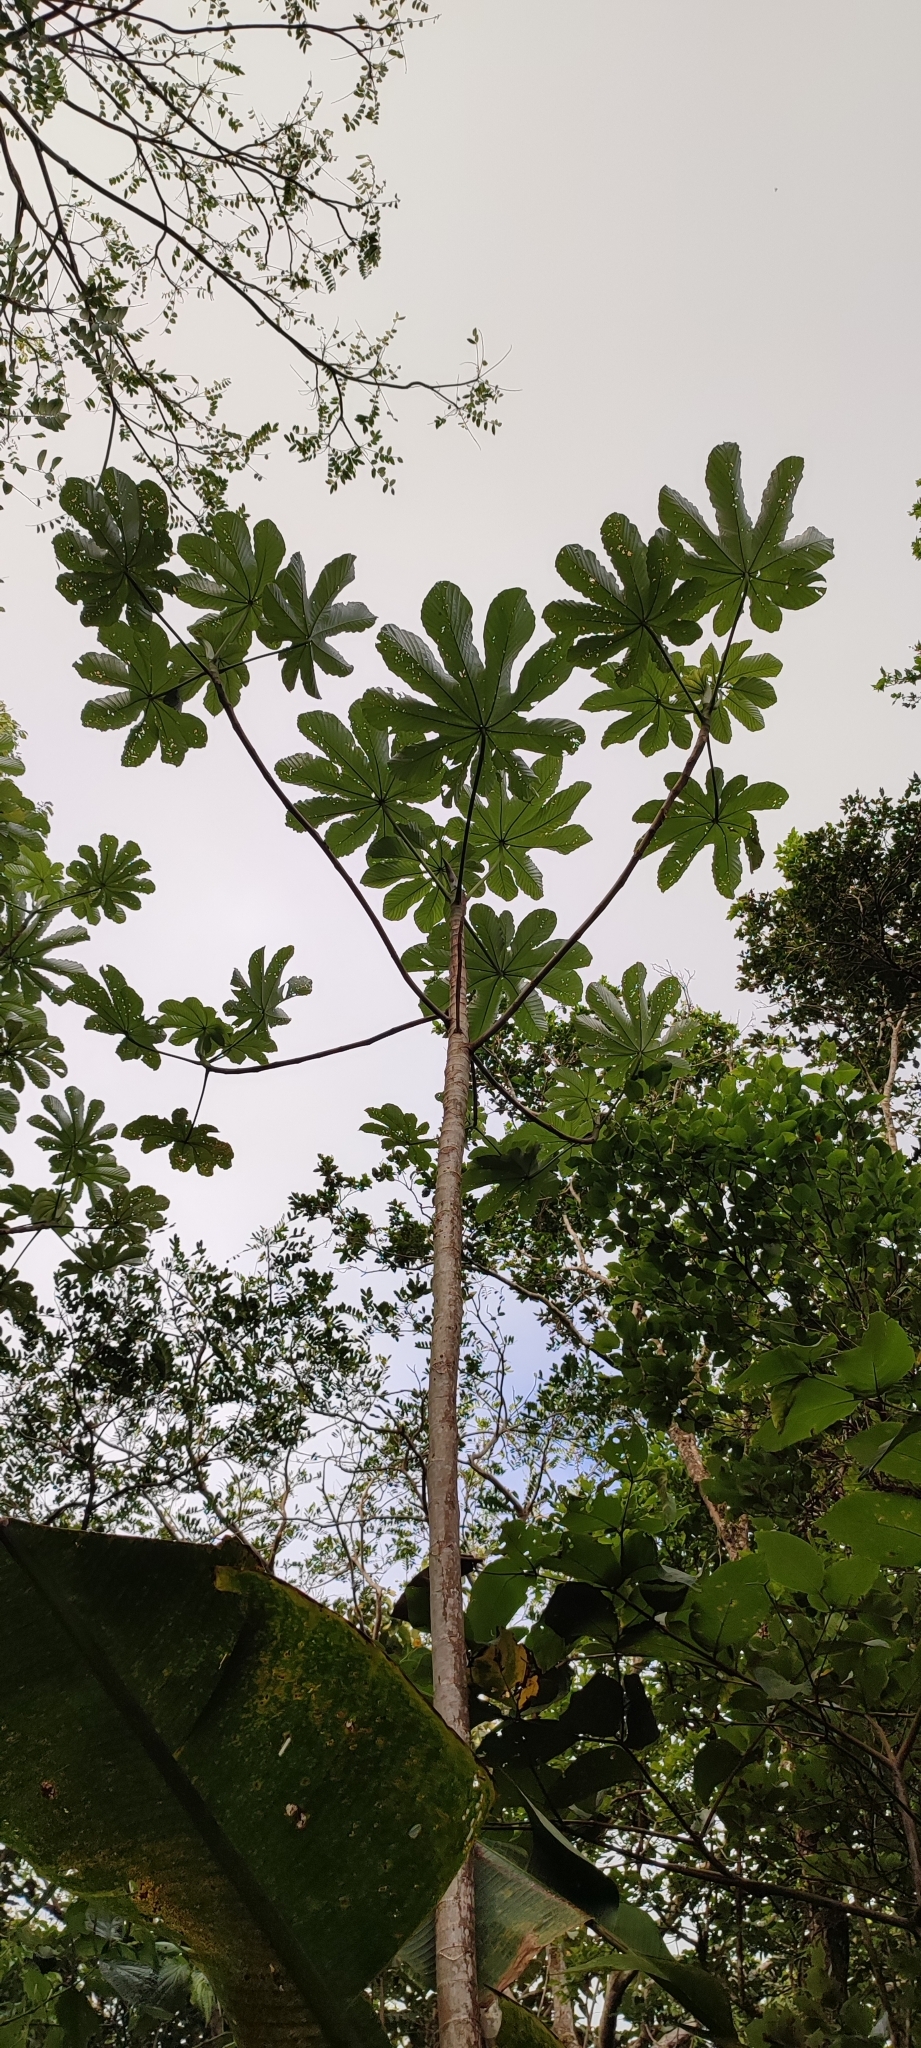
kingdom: Plantae
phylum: Tracheophyta
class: Magnoliopsida
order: Rosales
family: Urticaceae
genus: Cecropia
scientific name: Cecropia schreberiana
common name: Trumpet tree
